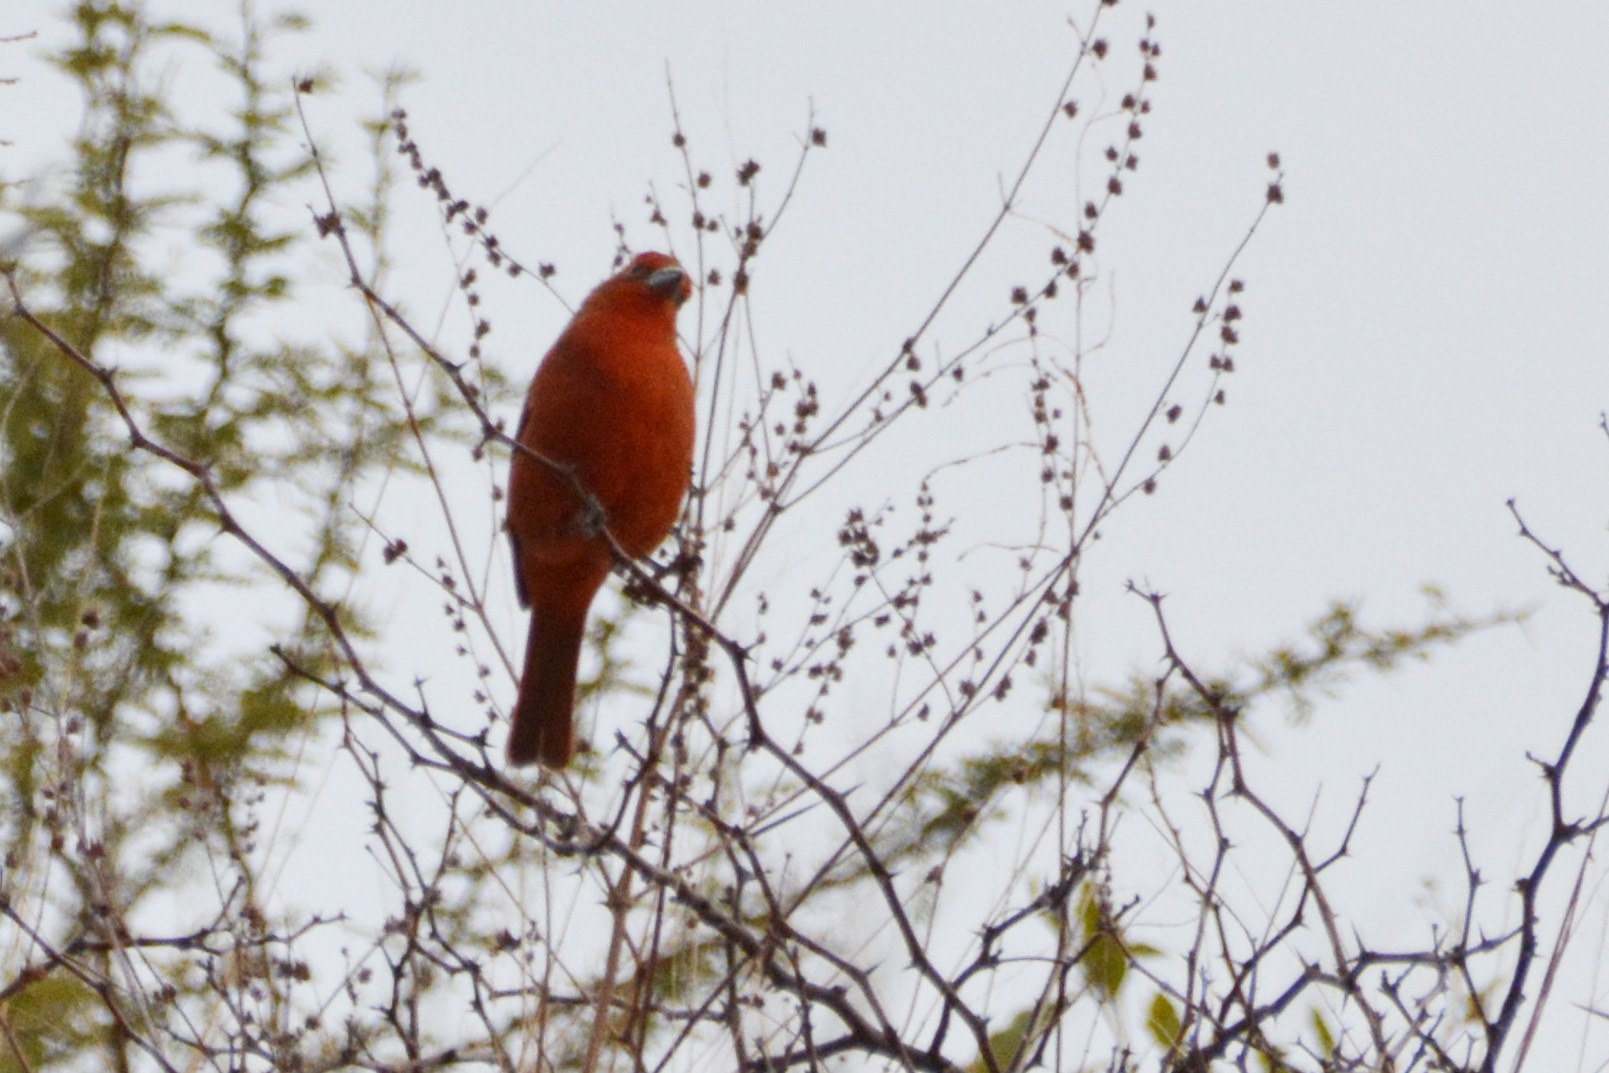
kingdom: Animalia
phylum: Chordata
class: Aves
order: Passeriformes
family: Cardinalidae
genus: Piranga
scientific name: Piranga flava
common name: Red tanager
